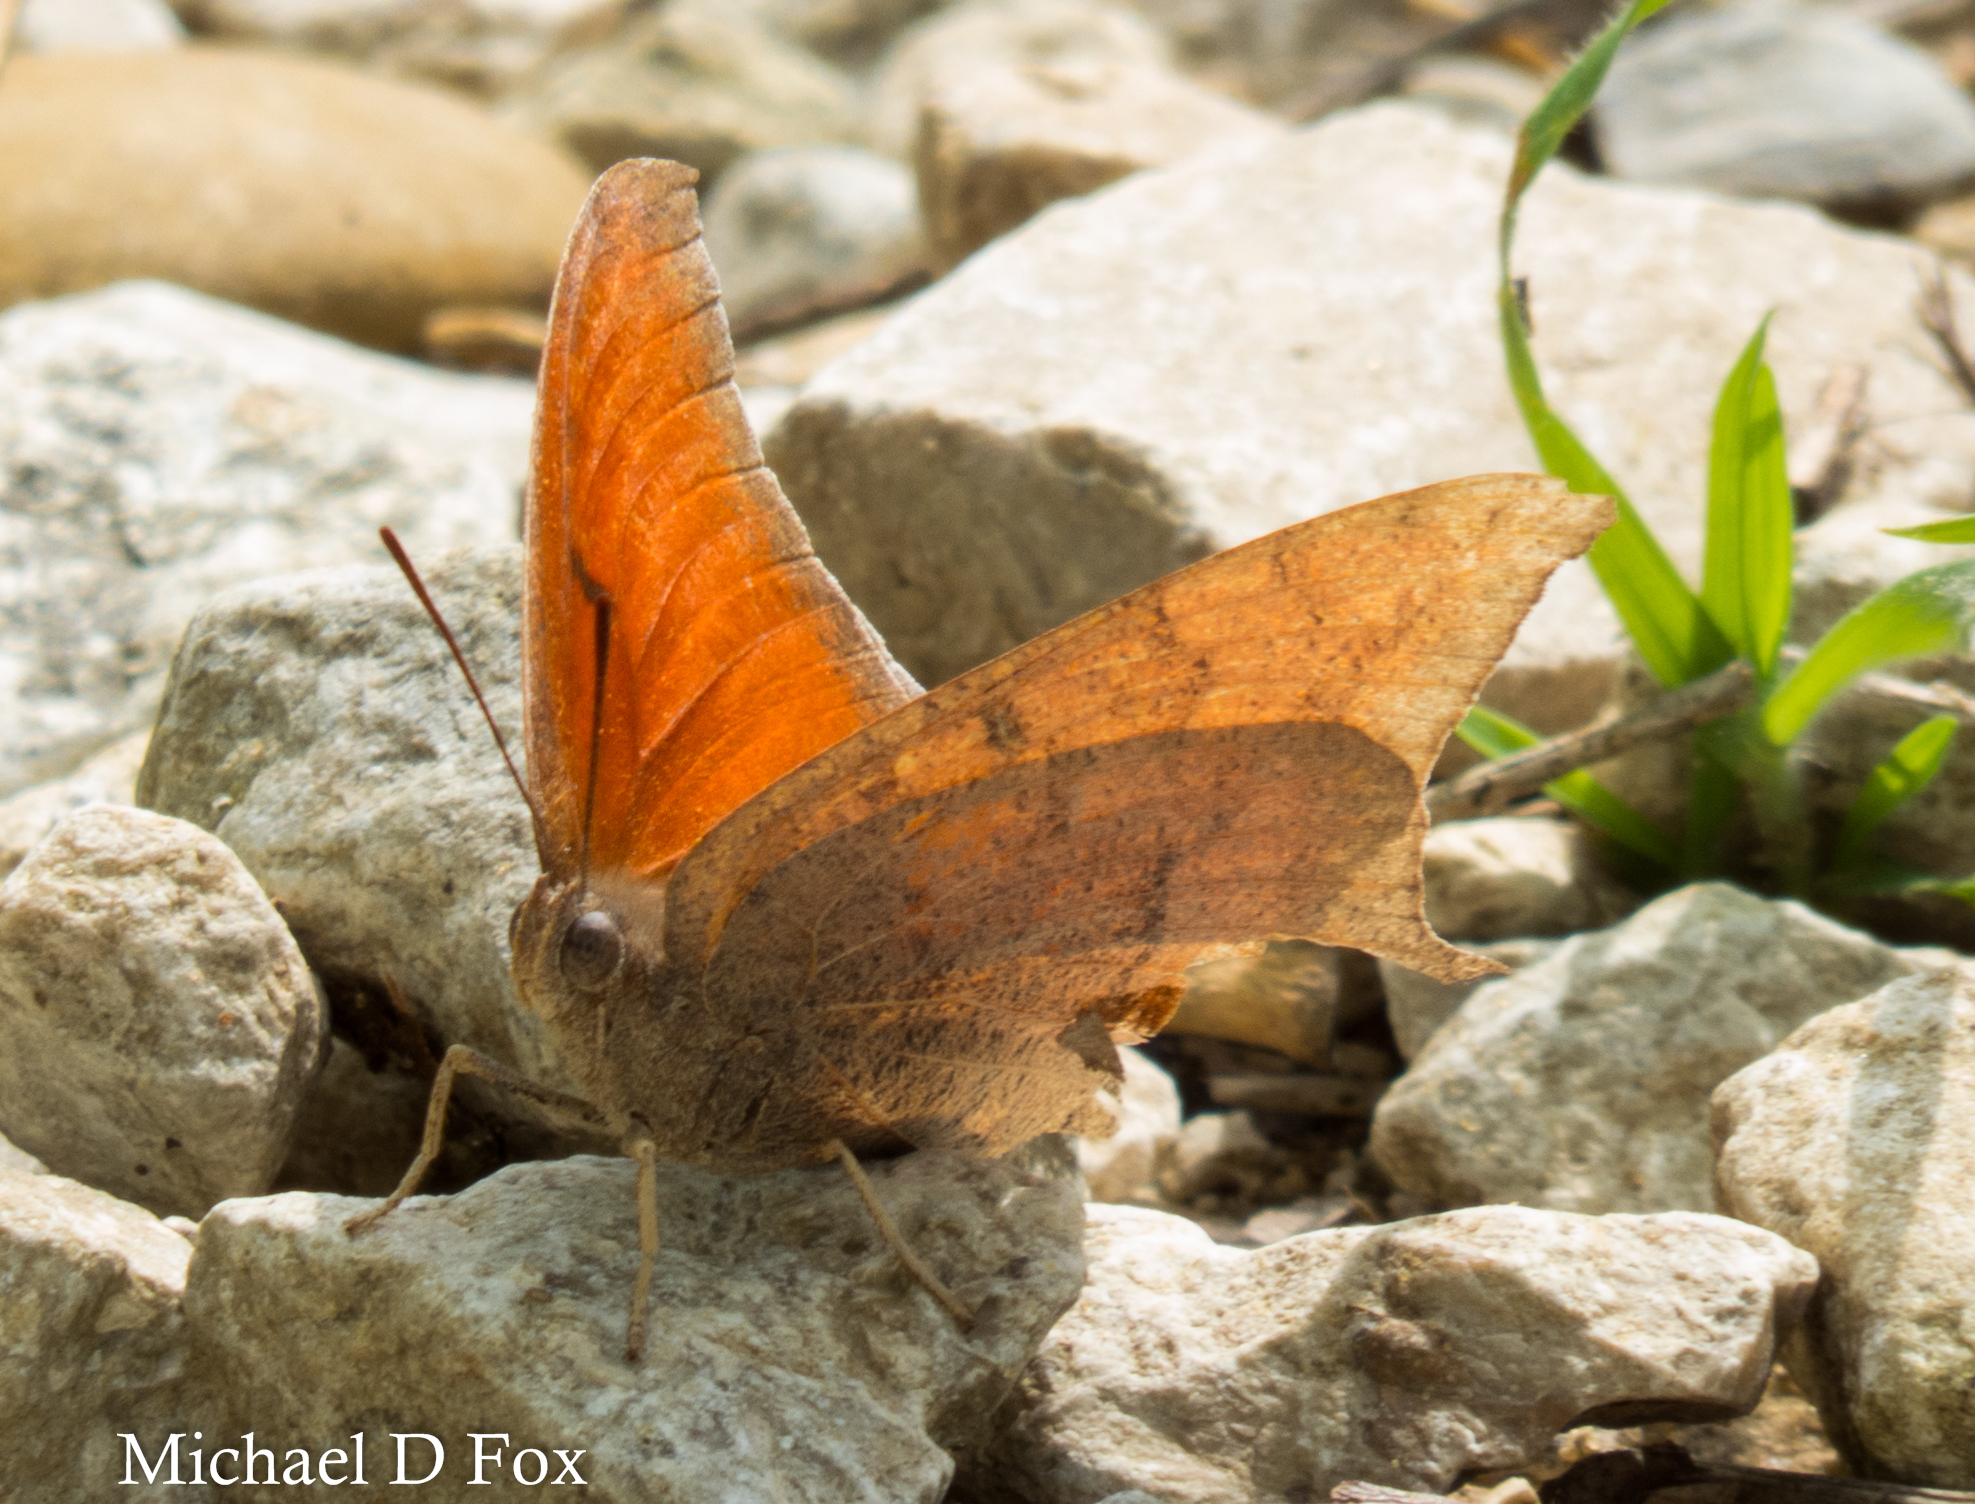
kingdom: Animalia
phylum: Arthropoda
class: Insecta
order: Lepidoptera
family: Nymphalidae
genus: Anaea
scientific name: Anaea andria
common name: Goatweed leafwing
